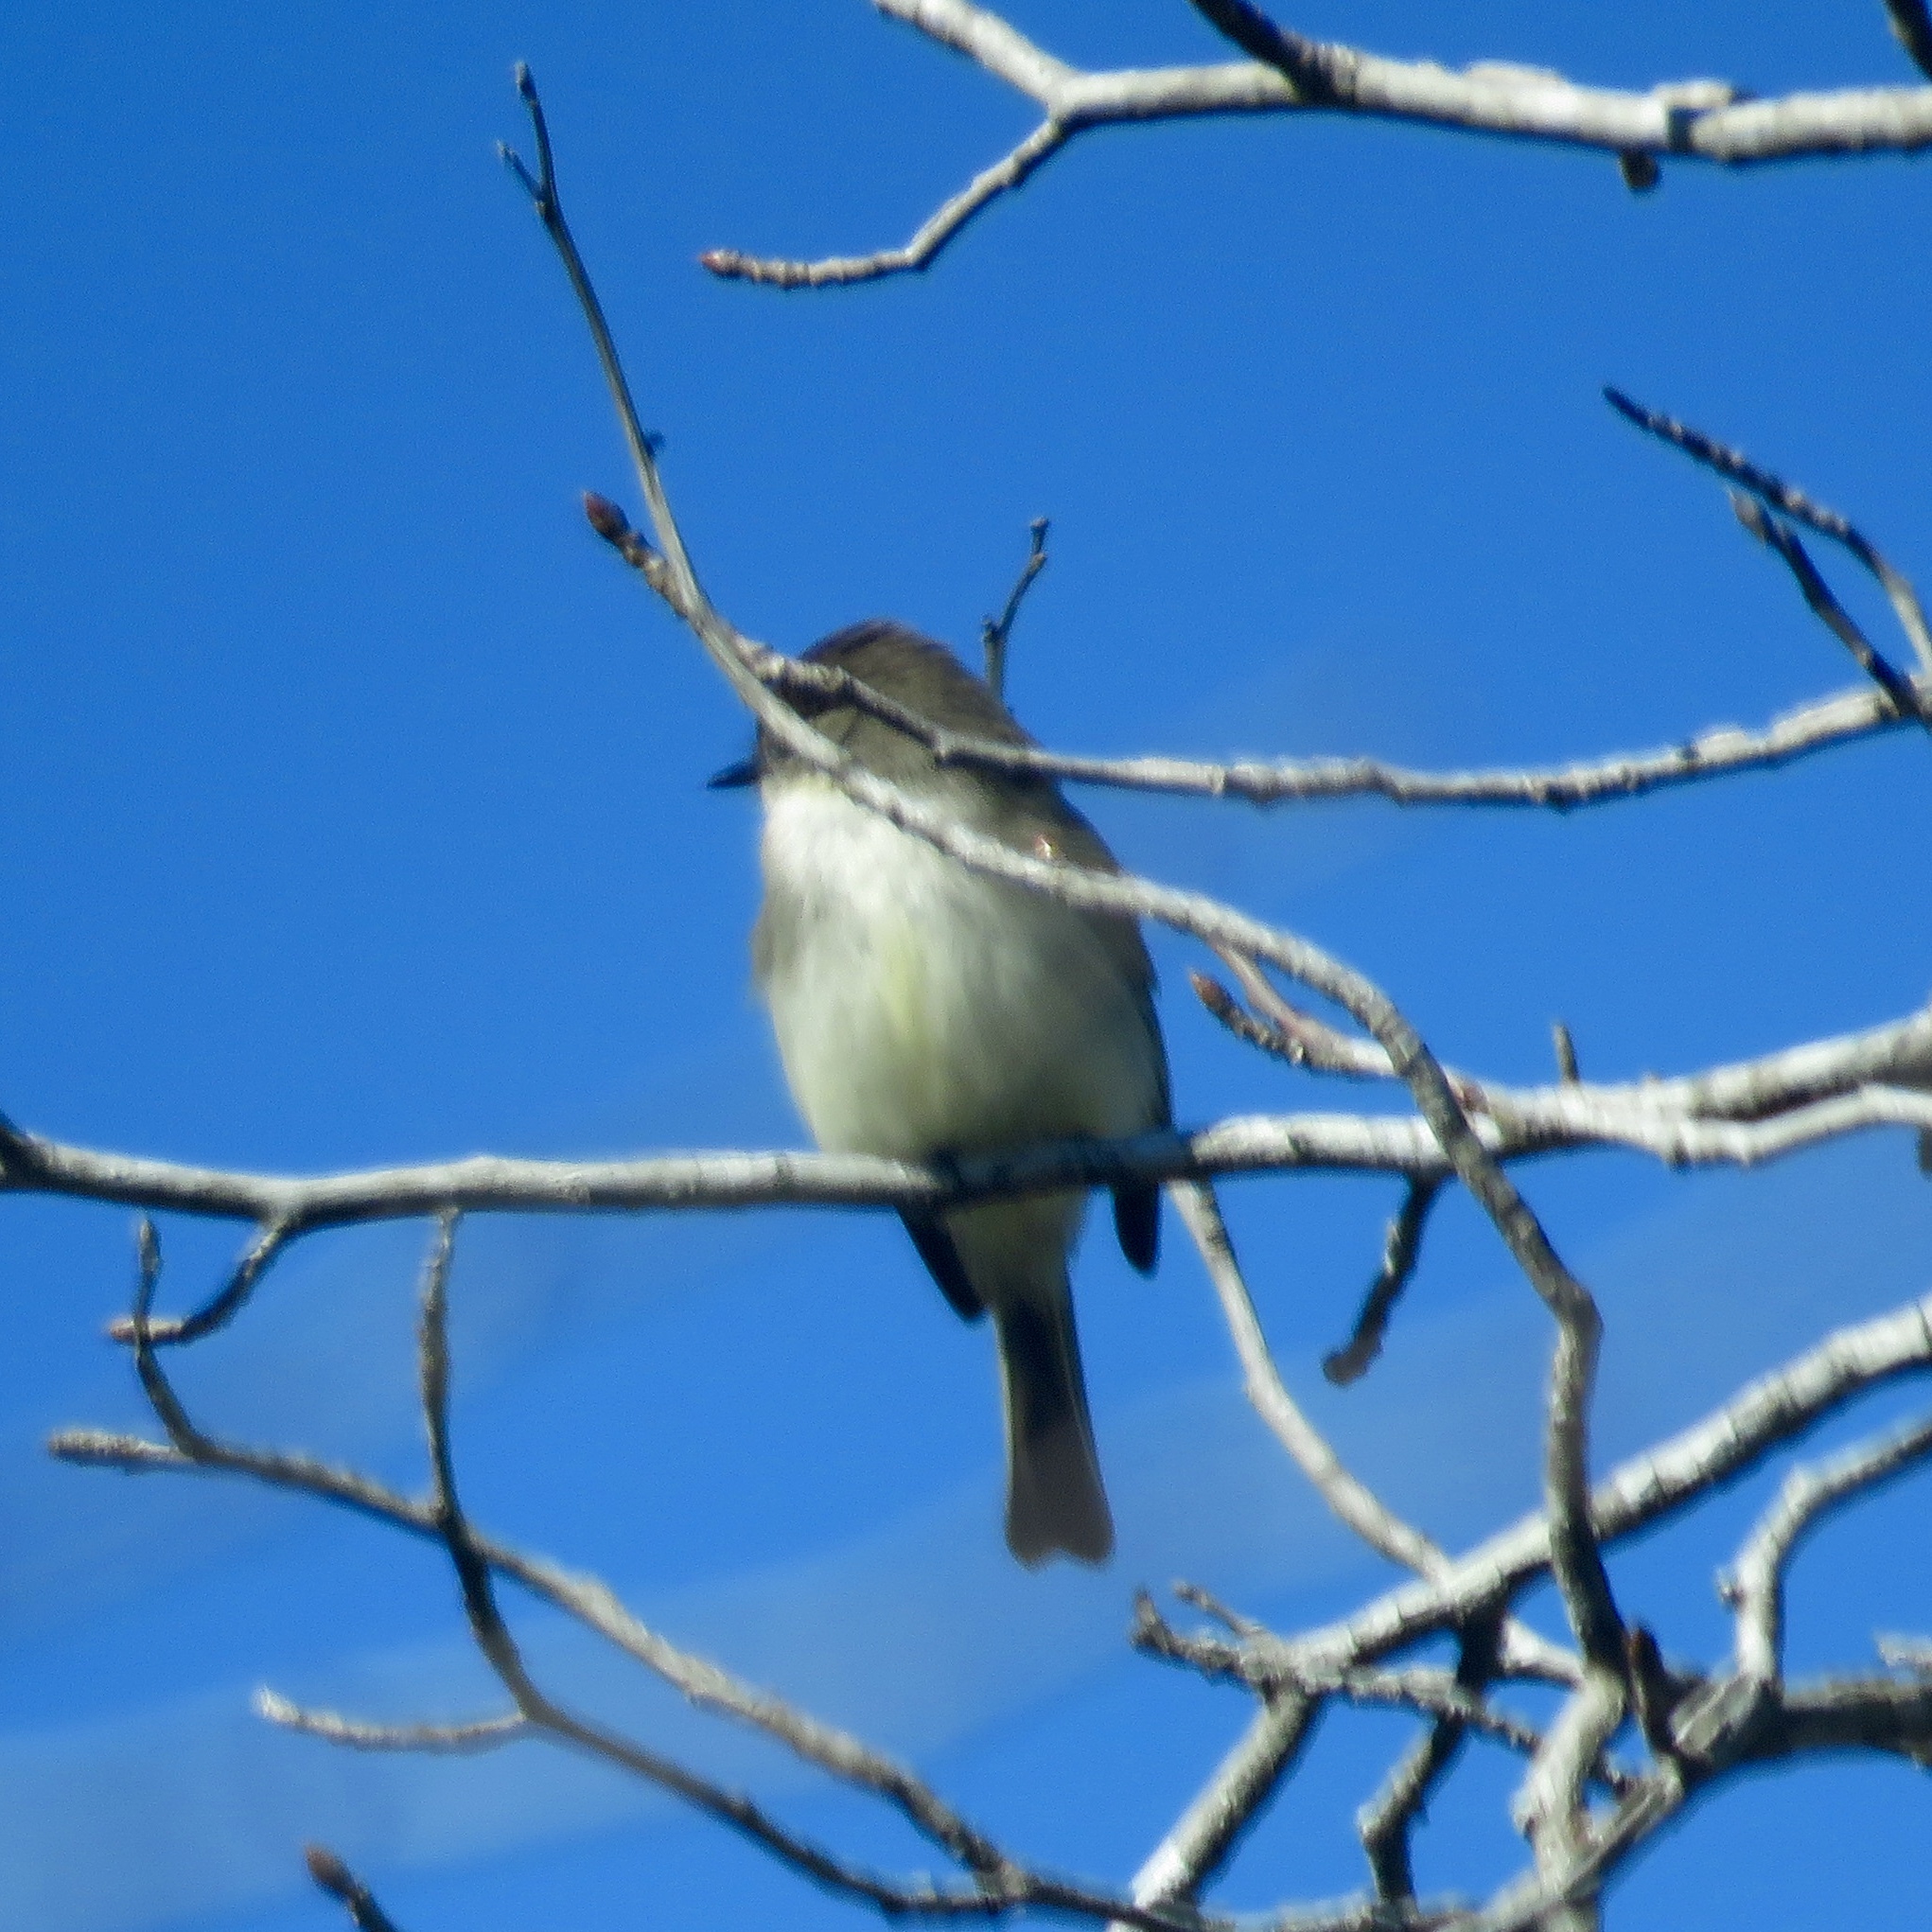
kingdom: Animalia
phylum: Chordata
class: Aves
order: Passeriformes
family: Tyrannidae
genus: Sayornis
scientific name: Sayornis phoebe
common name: Eastern phoebe
